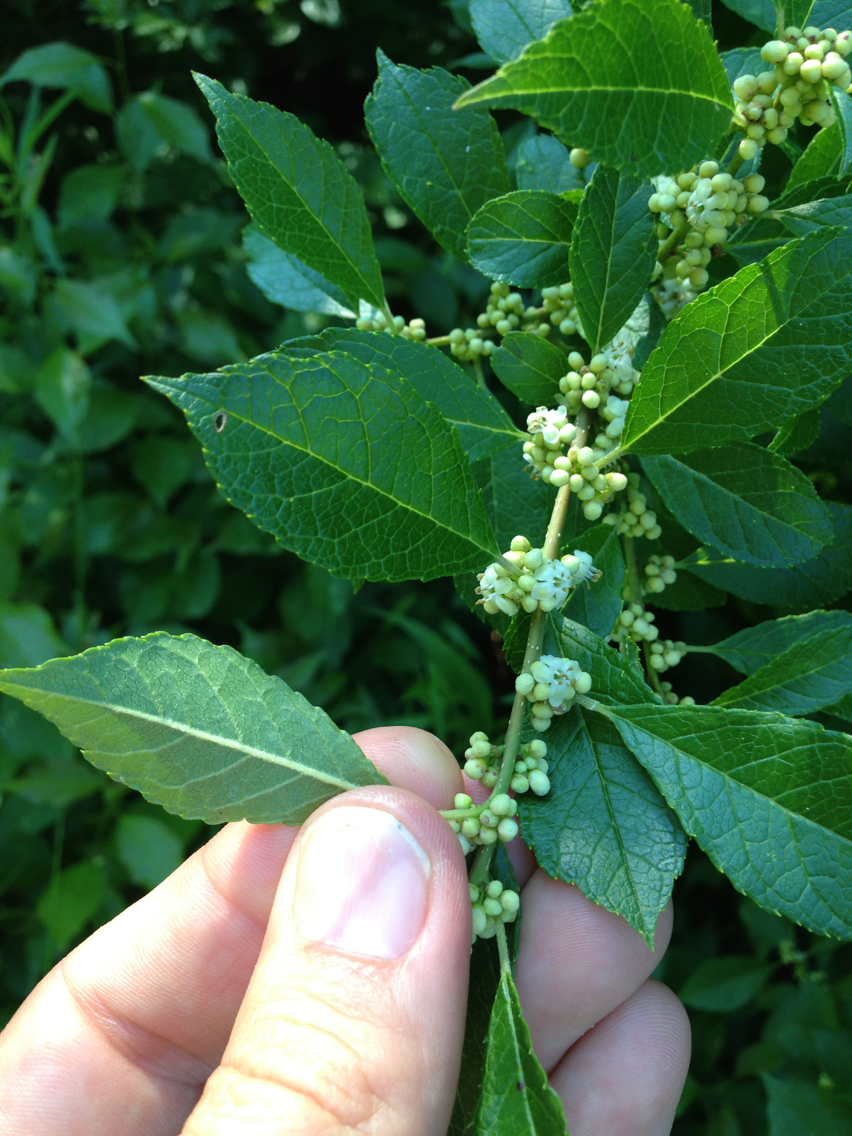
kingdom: Plantae
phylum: Tracheophyta
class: Magnoliopsida
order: Aquifoliales
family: Aquifoliaceae
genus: Ilex
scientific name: Ilex verticillata
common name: Virginia winterberry
